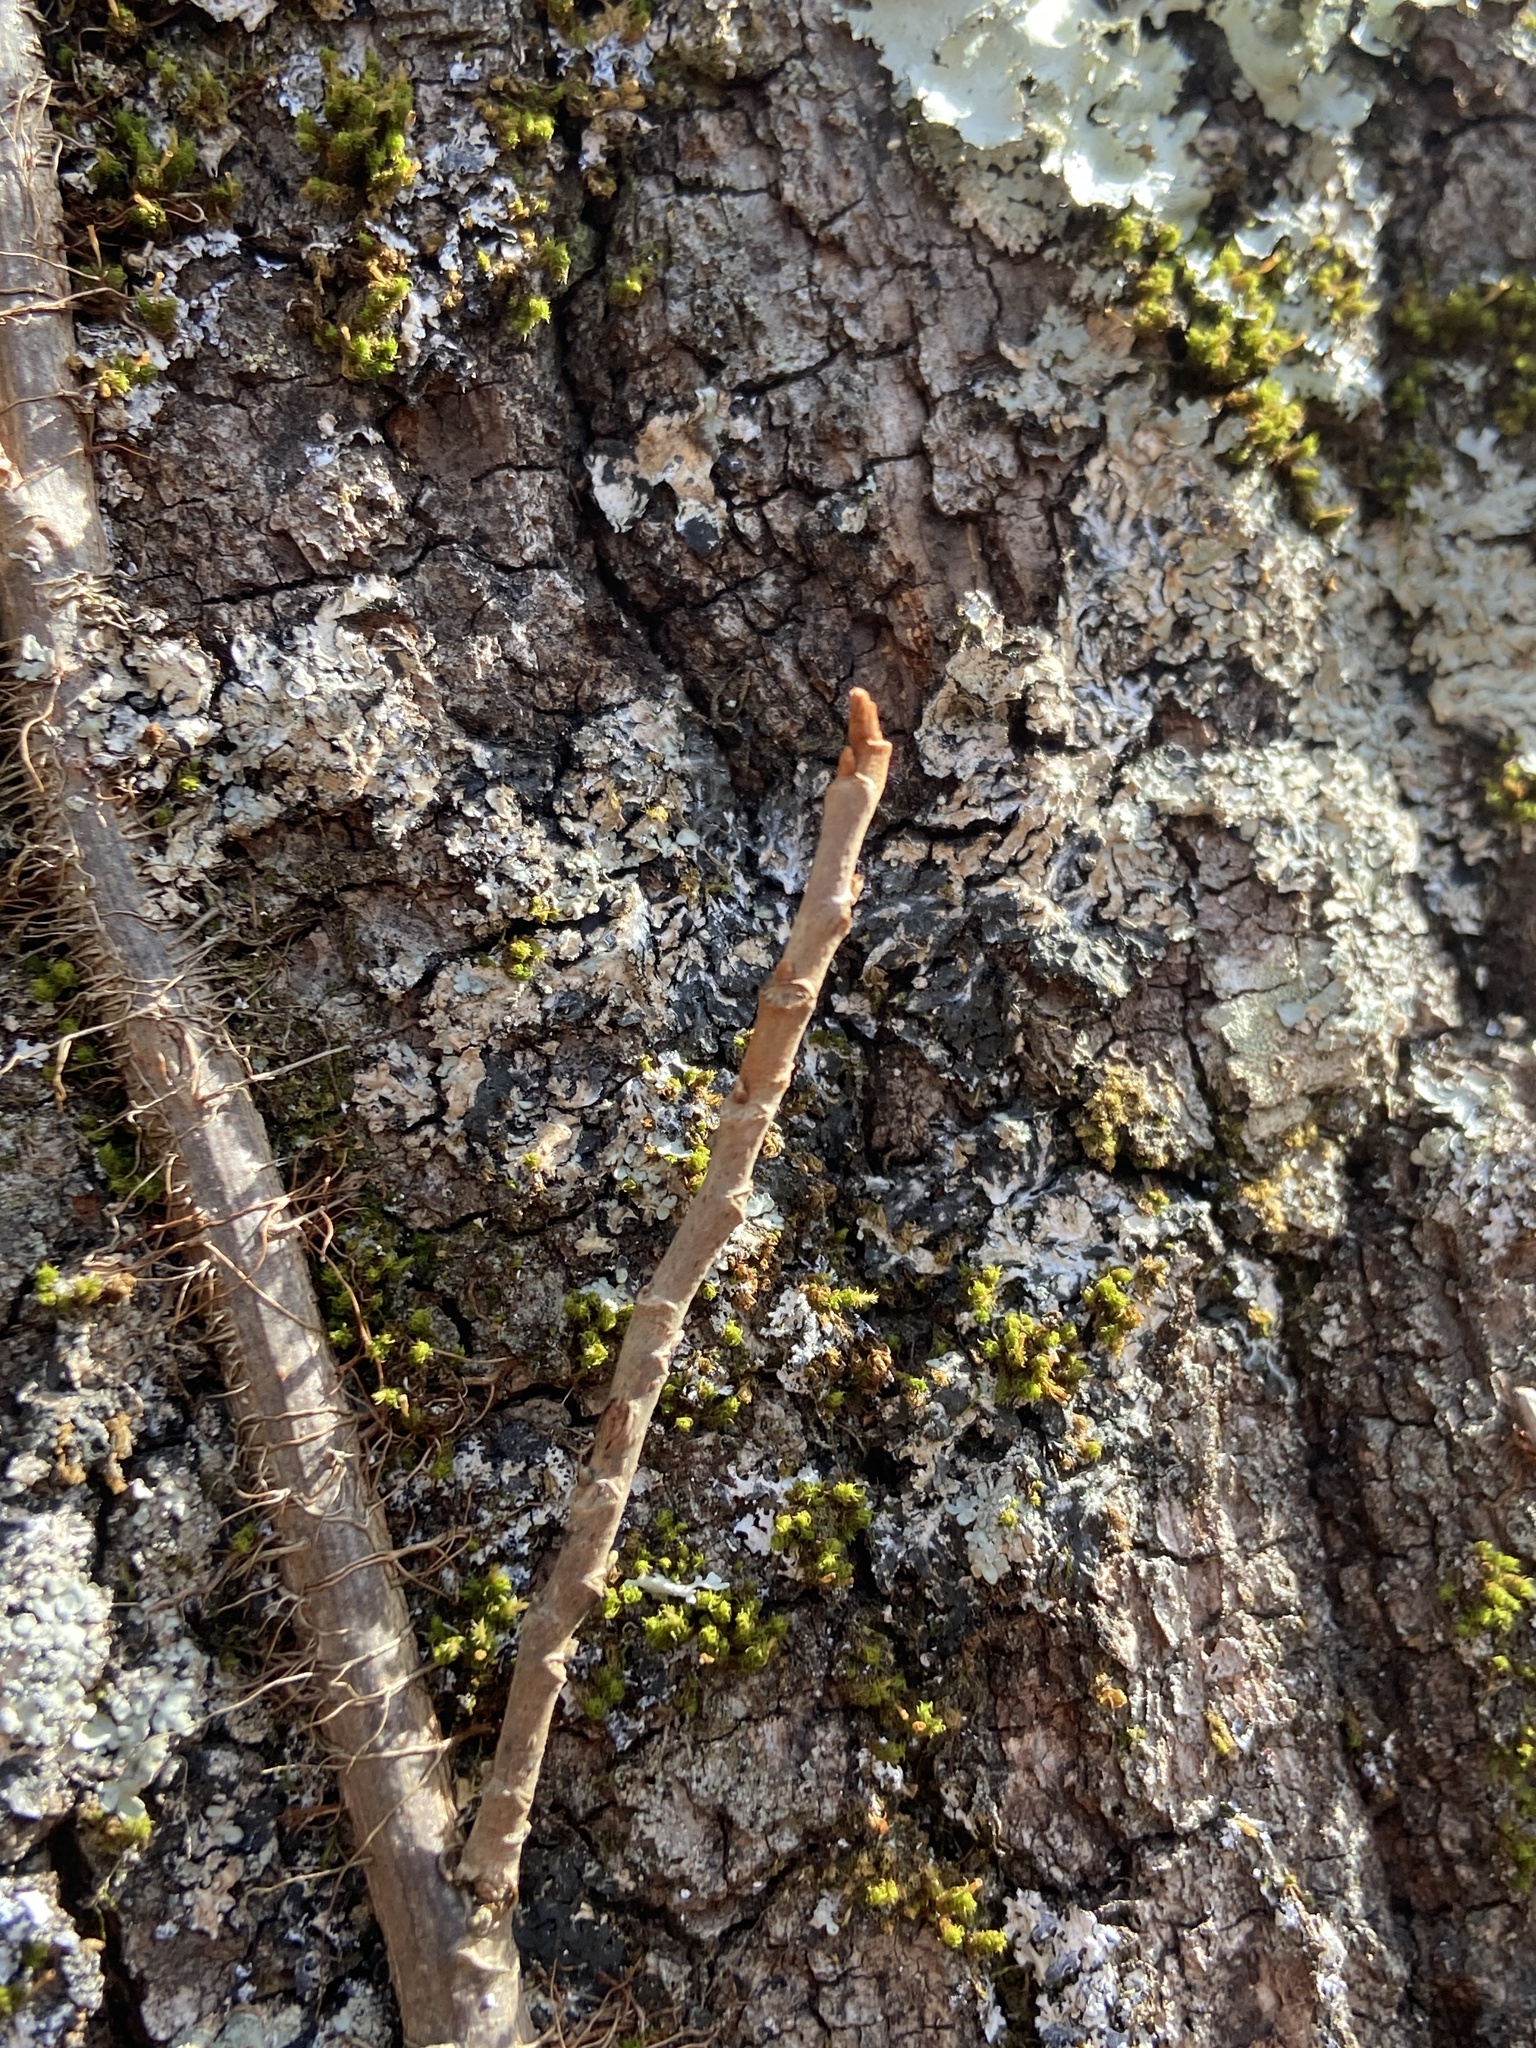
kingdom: Plantae
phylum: Tracheophyta
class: Magnoliopsida
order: Sapindales
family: Anacardiaceae
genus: Toxicodendron
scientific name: Toxicodendron radicans
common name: Poison ivy
